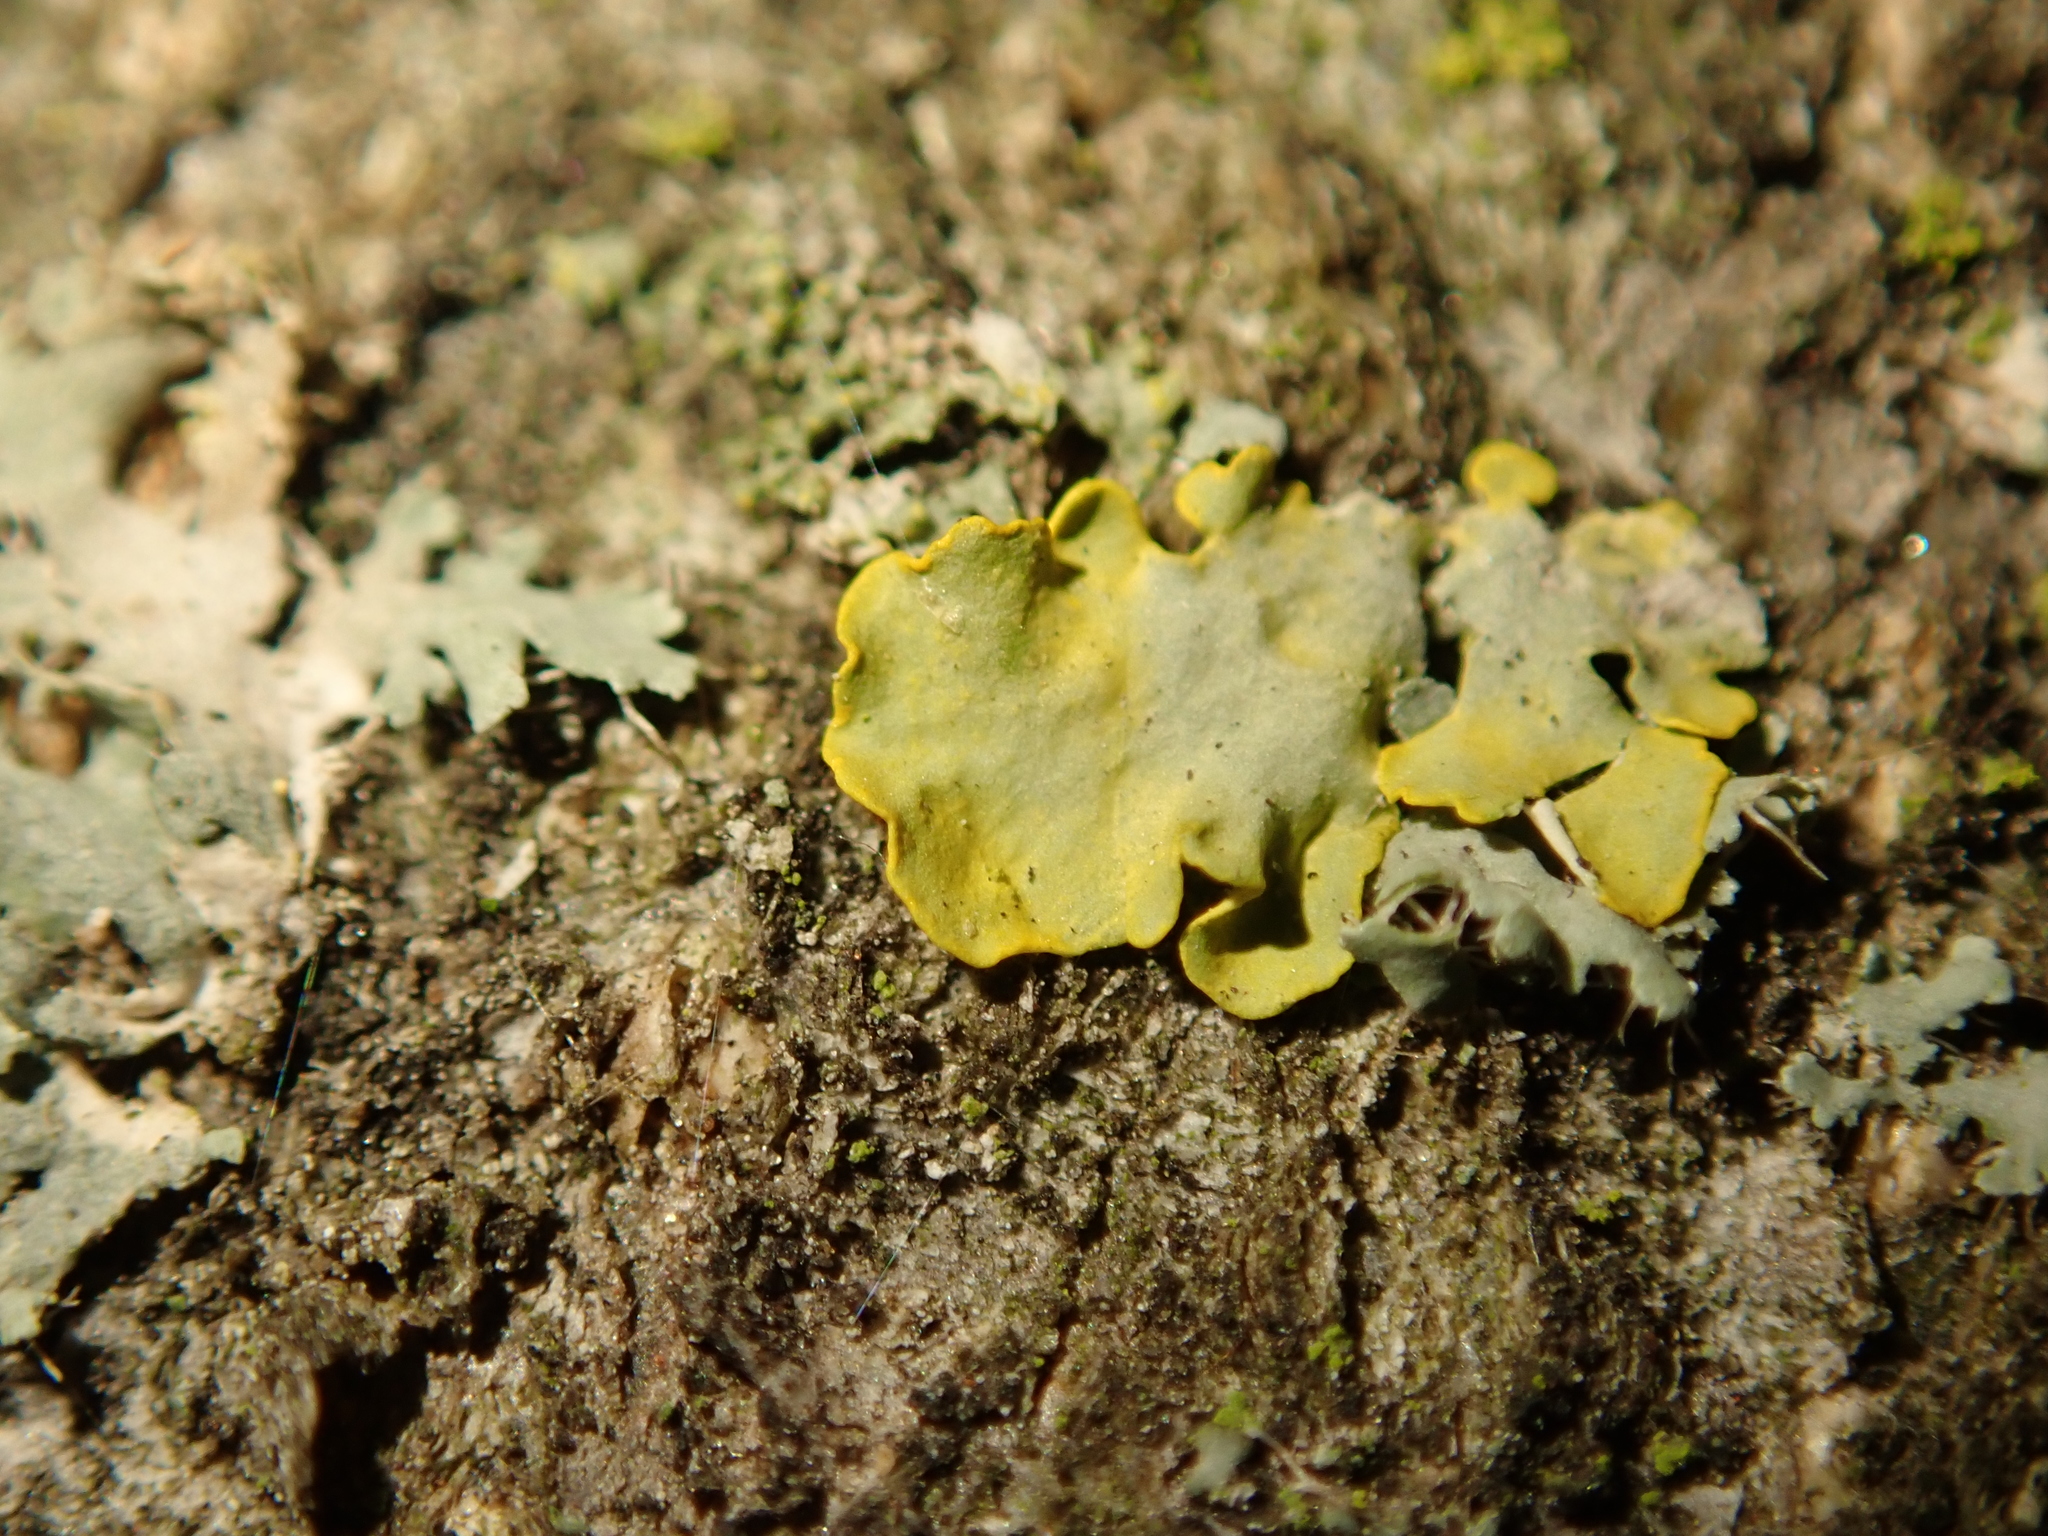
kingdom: Fungi
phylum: Ascomycota
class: Lecanoromycetes
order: Teloschistales
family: Teloschistaceae
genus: Xanthoria
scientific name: Xanthoria parietina
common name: Common orange lichen
